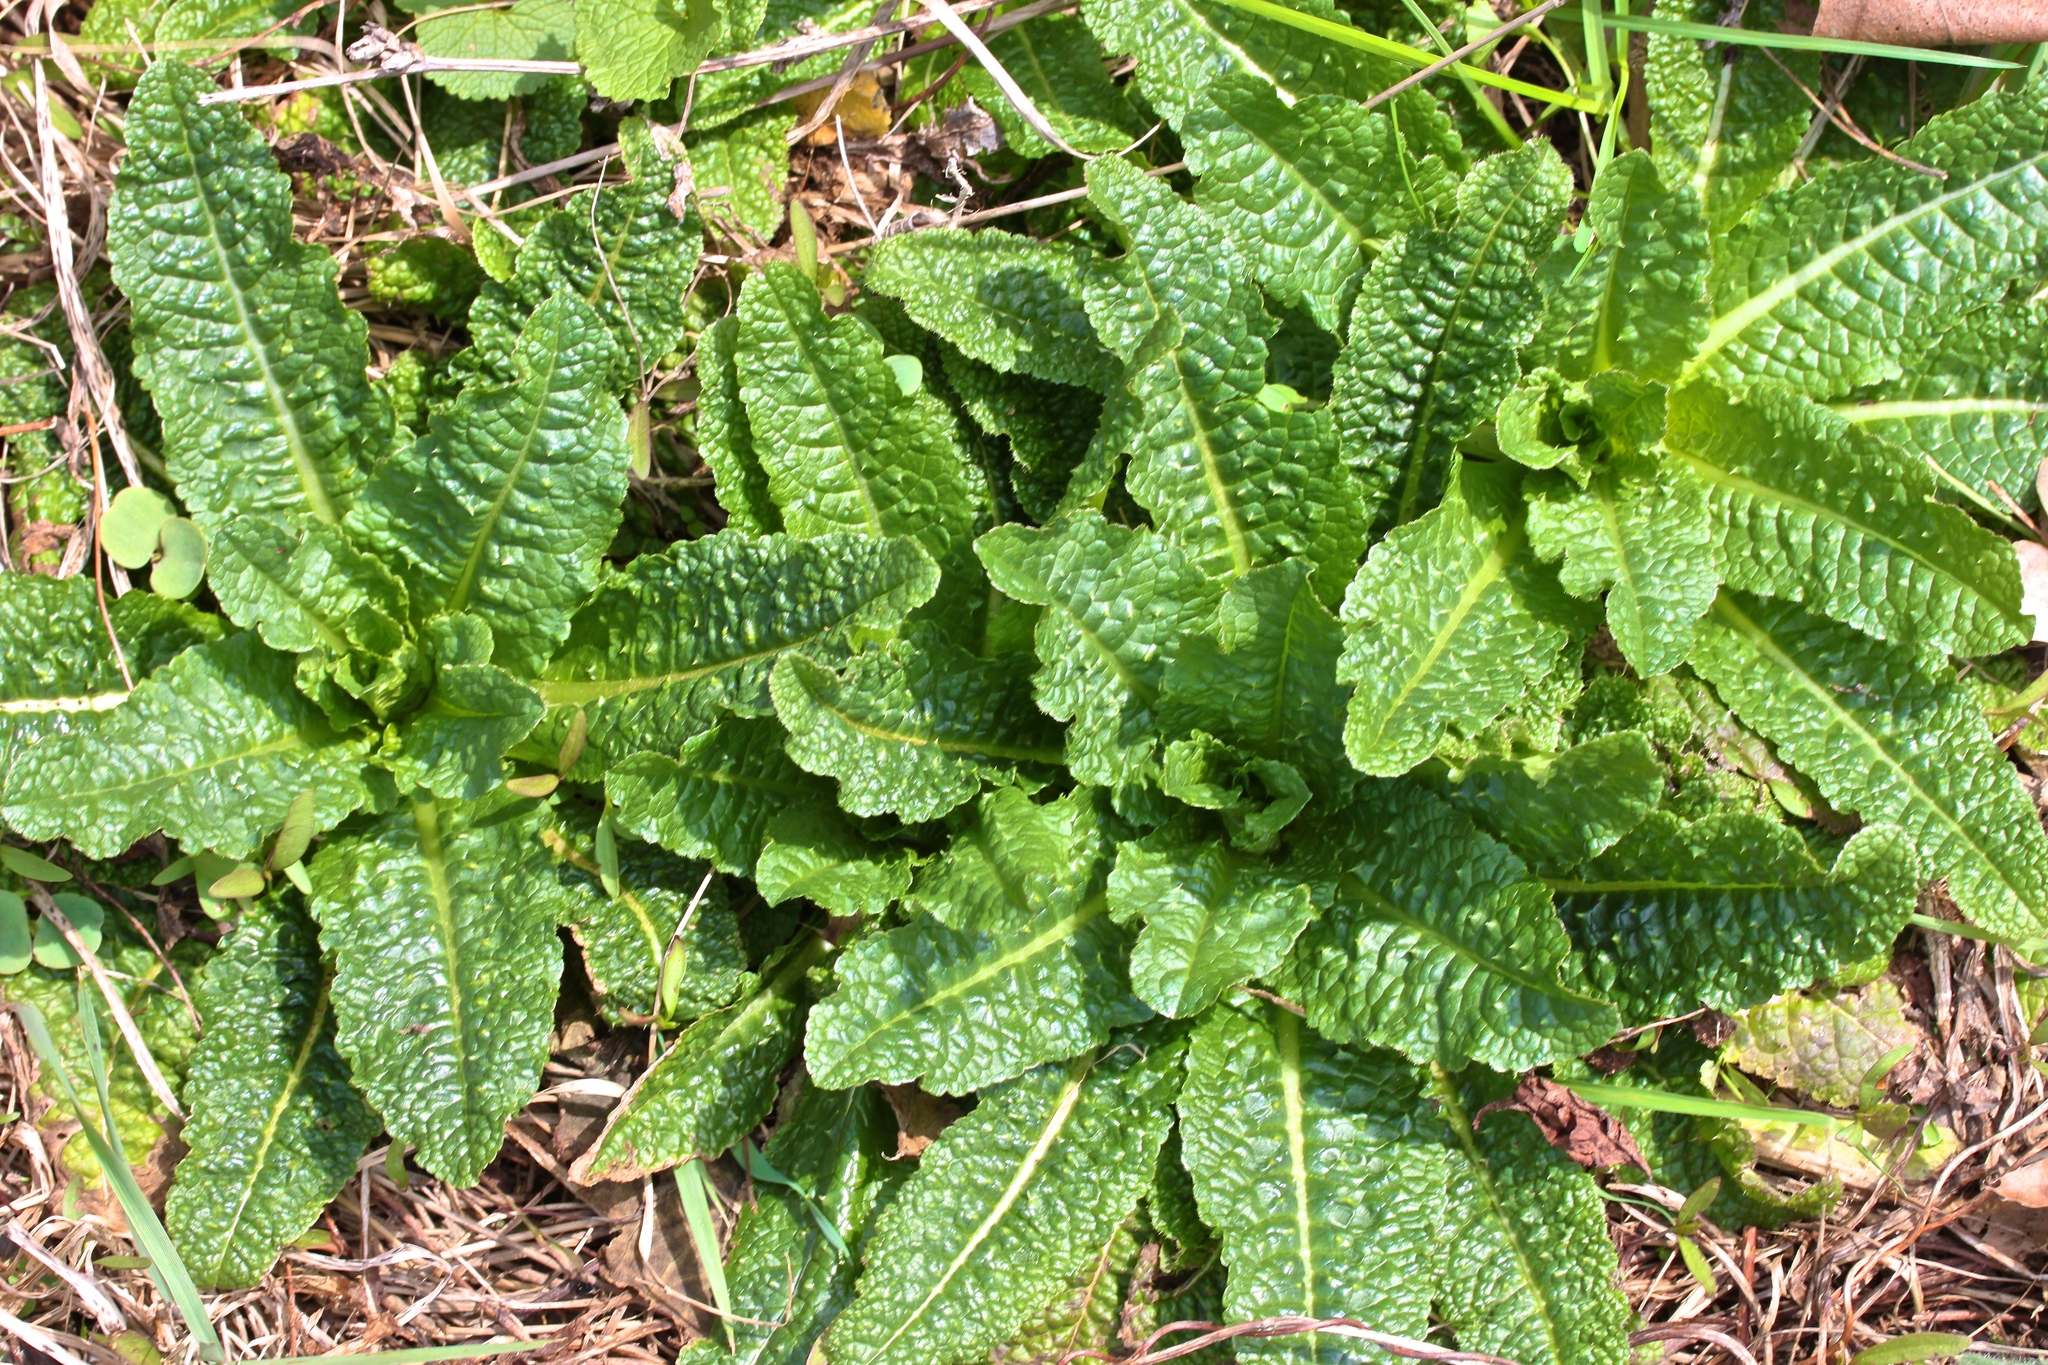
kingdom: Plantae
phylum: Tracheophyta
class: Magnoliopsida
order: Dipsacales
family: Caprifoliaceae
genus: Dipsacus
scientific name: Dipsacus fullonum
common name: Teasel
